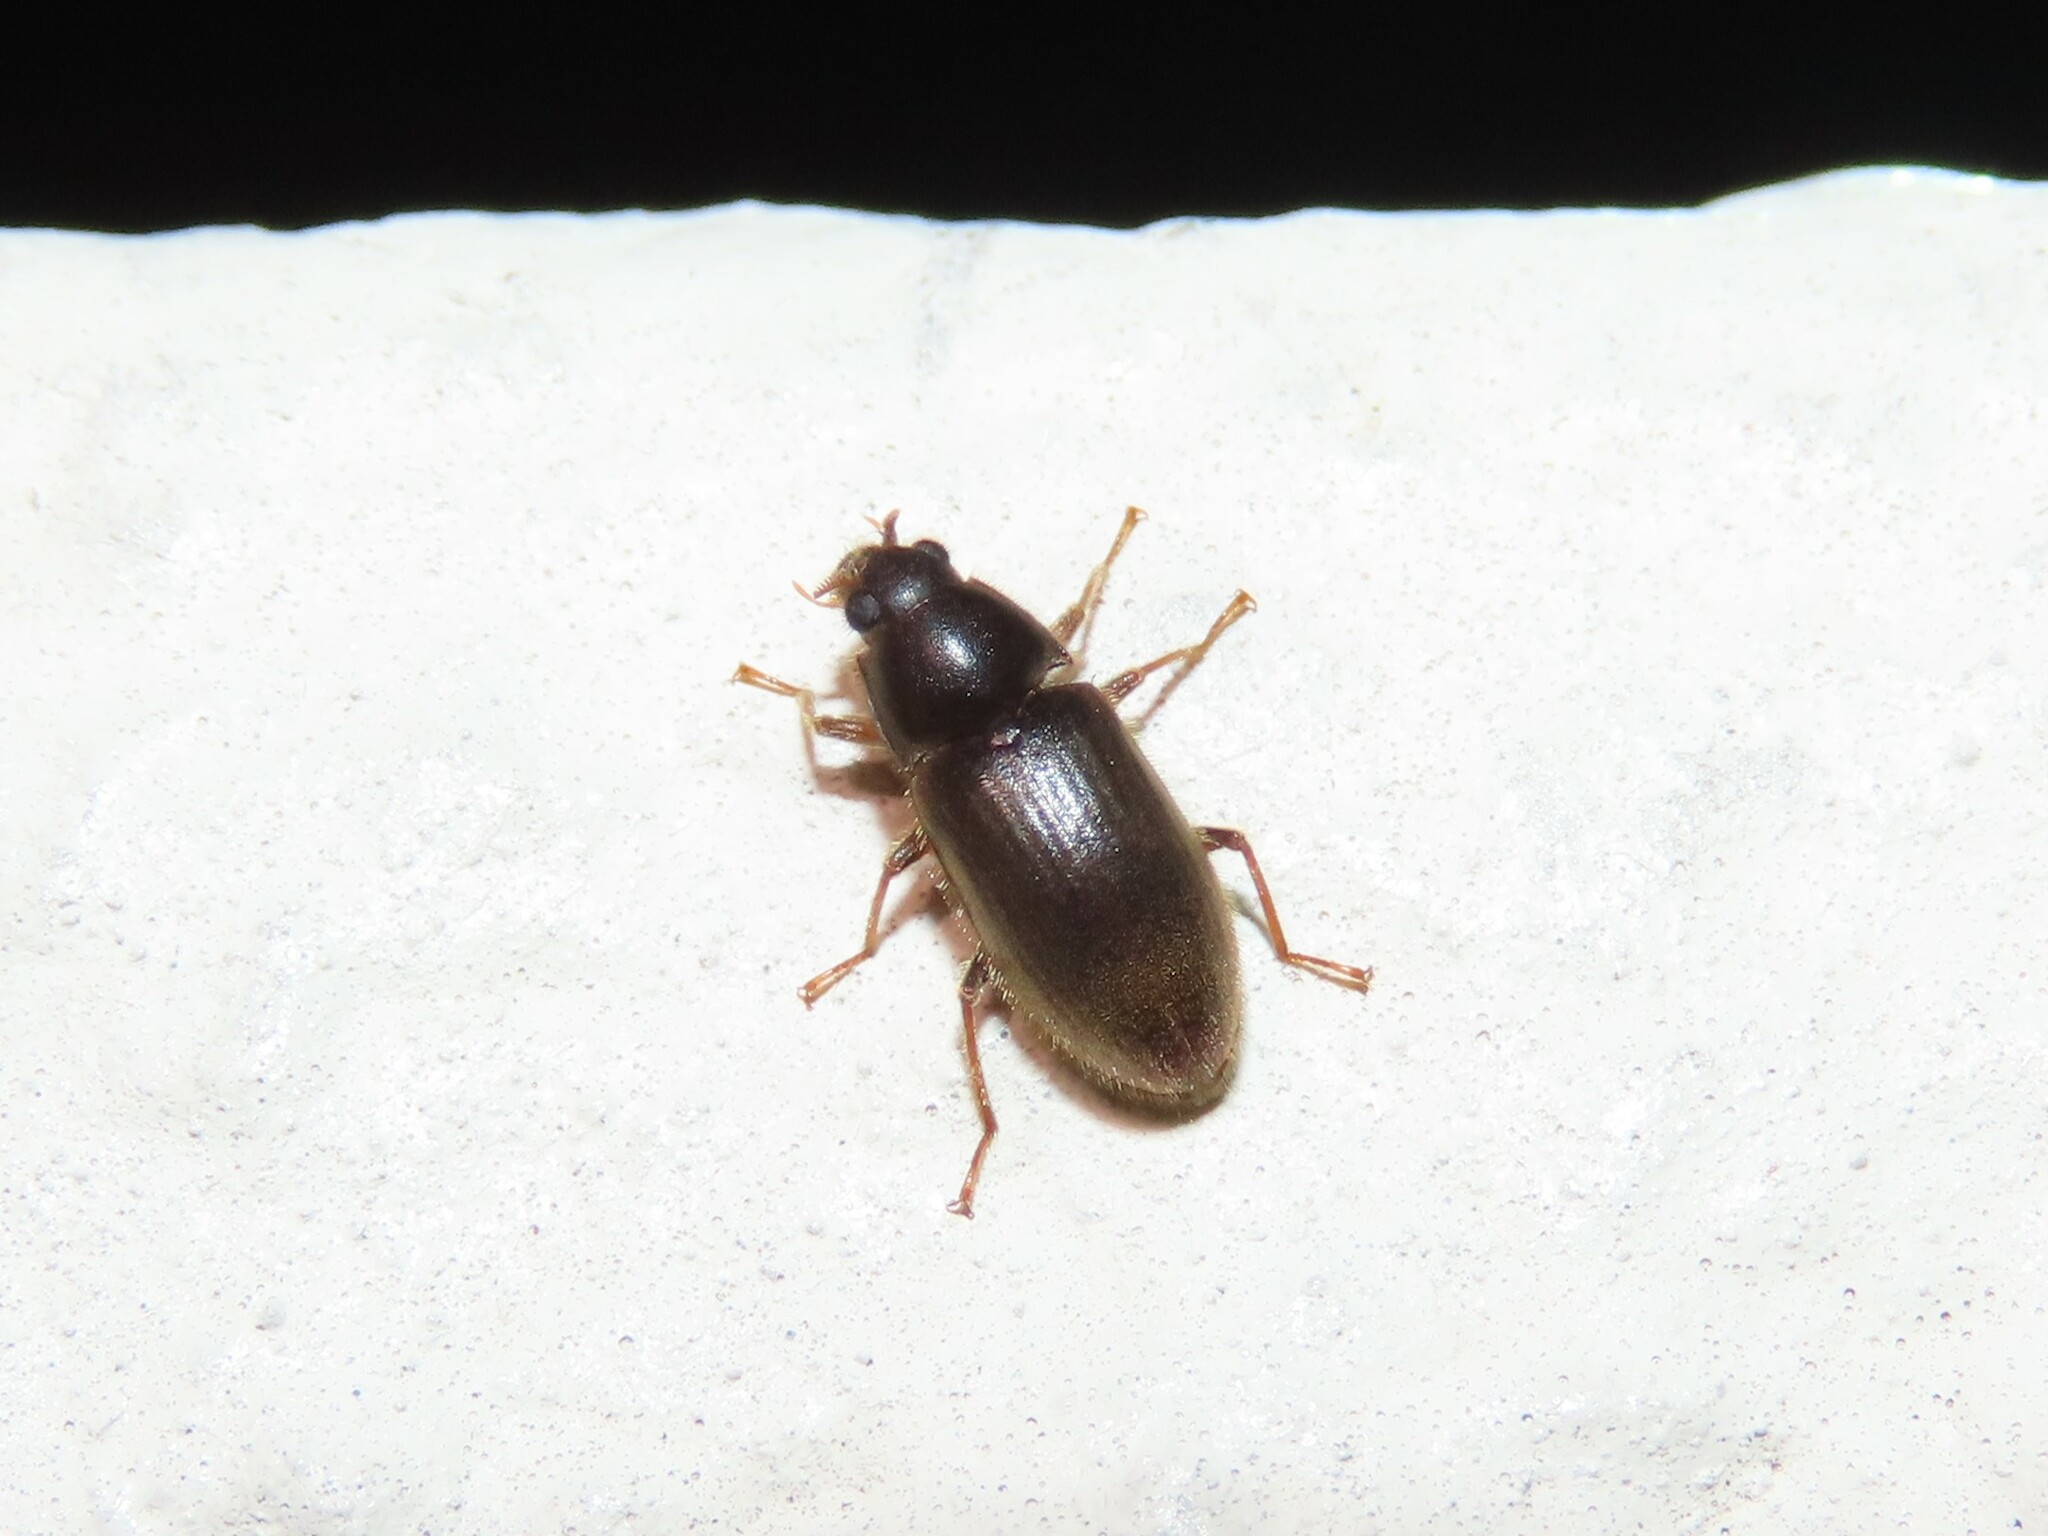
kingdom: Animalia
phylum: Arthropoda
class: Insecta
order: Coleoptera
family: Dryopidae
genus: Pelonomus
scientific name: Pelonomus obscurus
